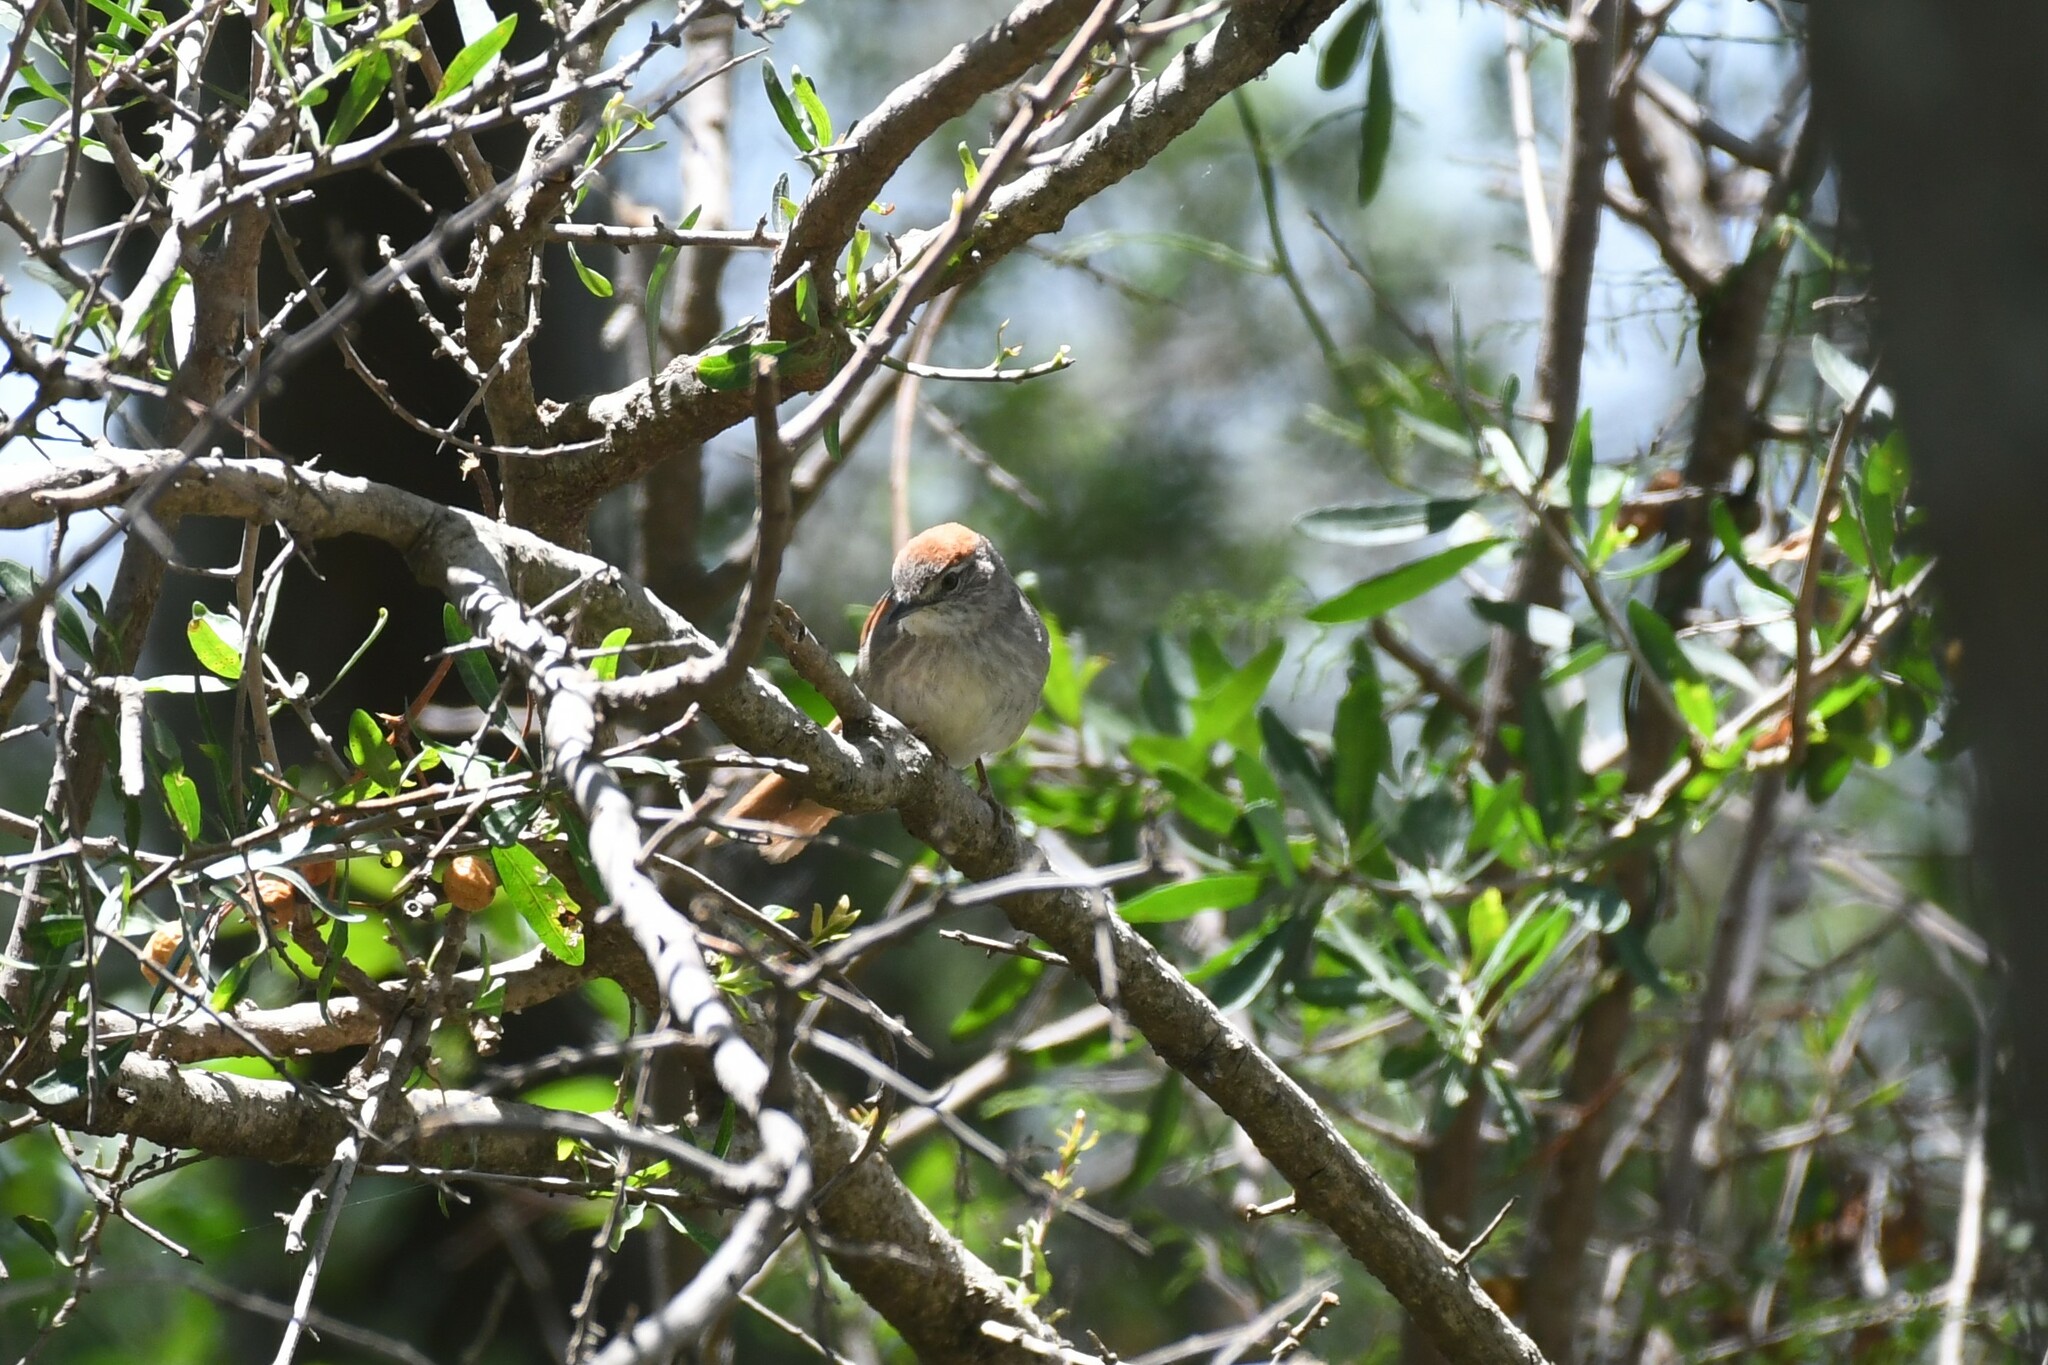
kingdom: Animalia
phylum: Chordata
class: Aves
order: Passeriformes
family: Furnariidae
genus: Synallaxis
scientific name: Synallaxis albescens
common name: Pale-breasted spinetail
